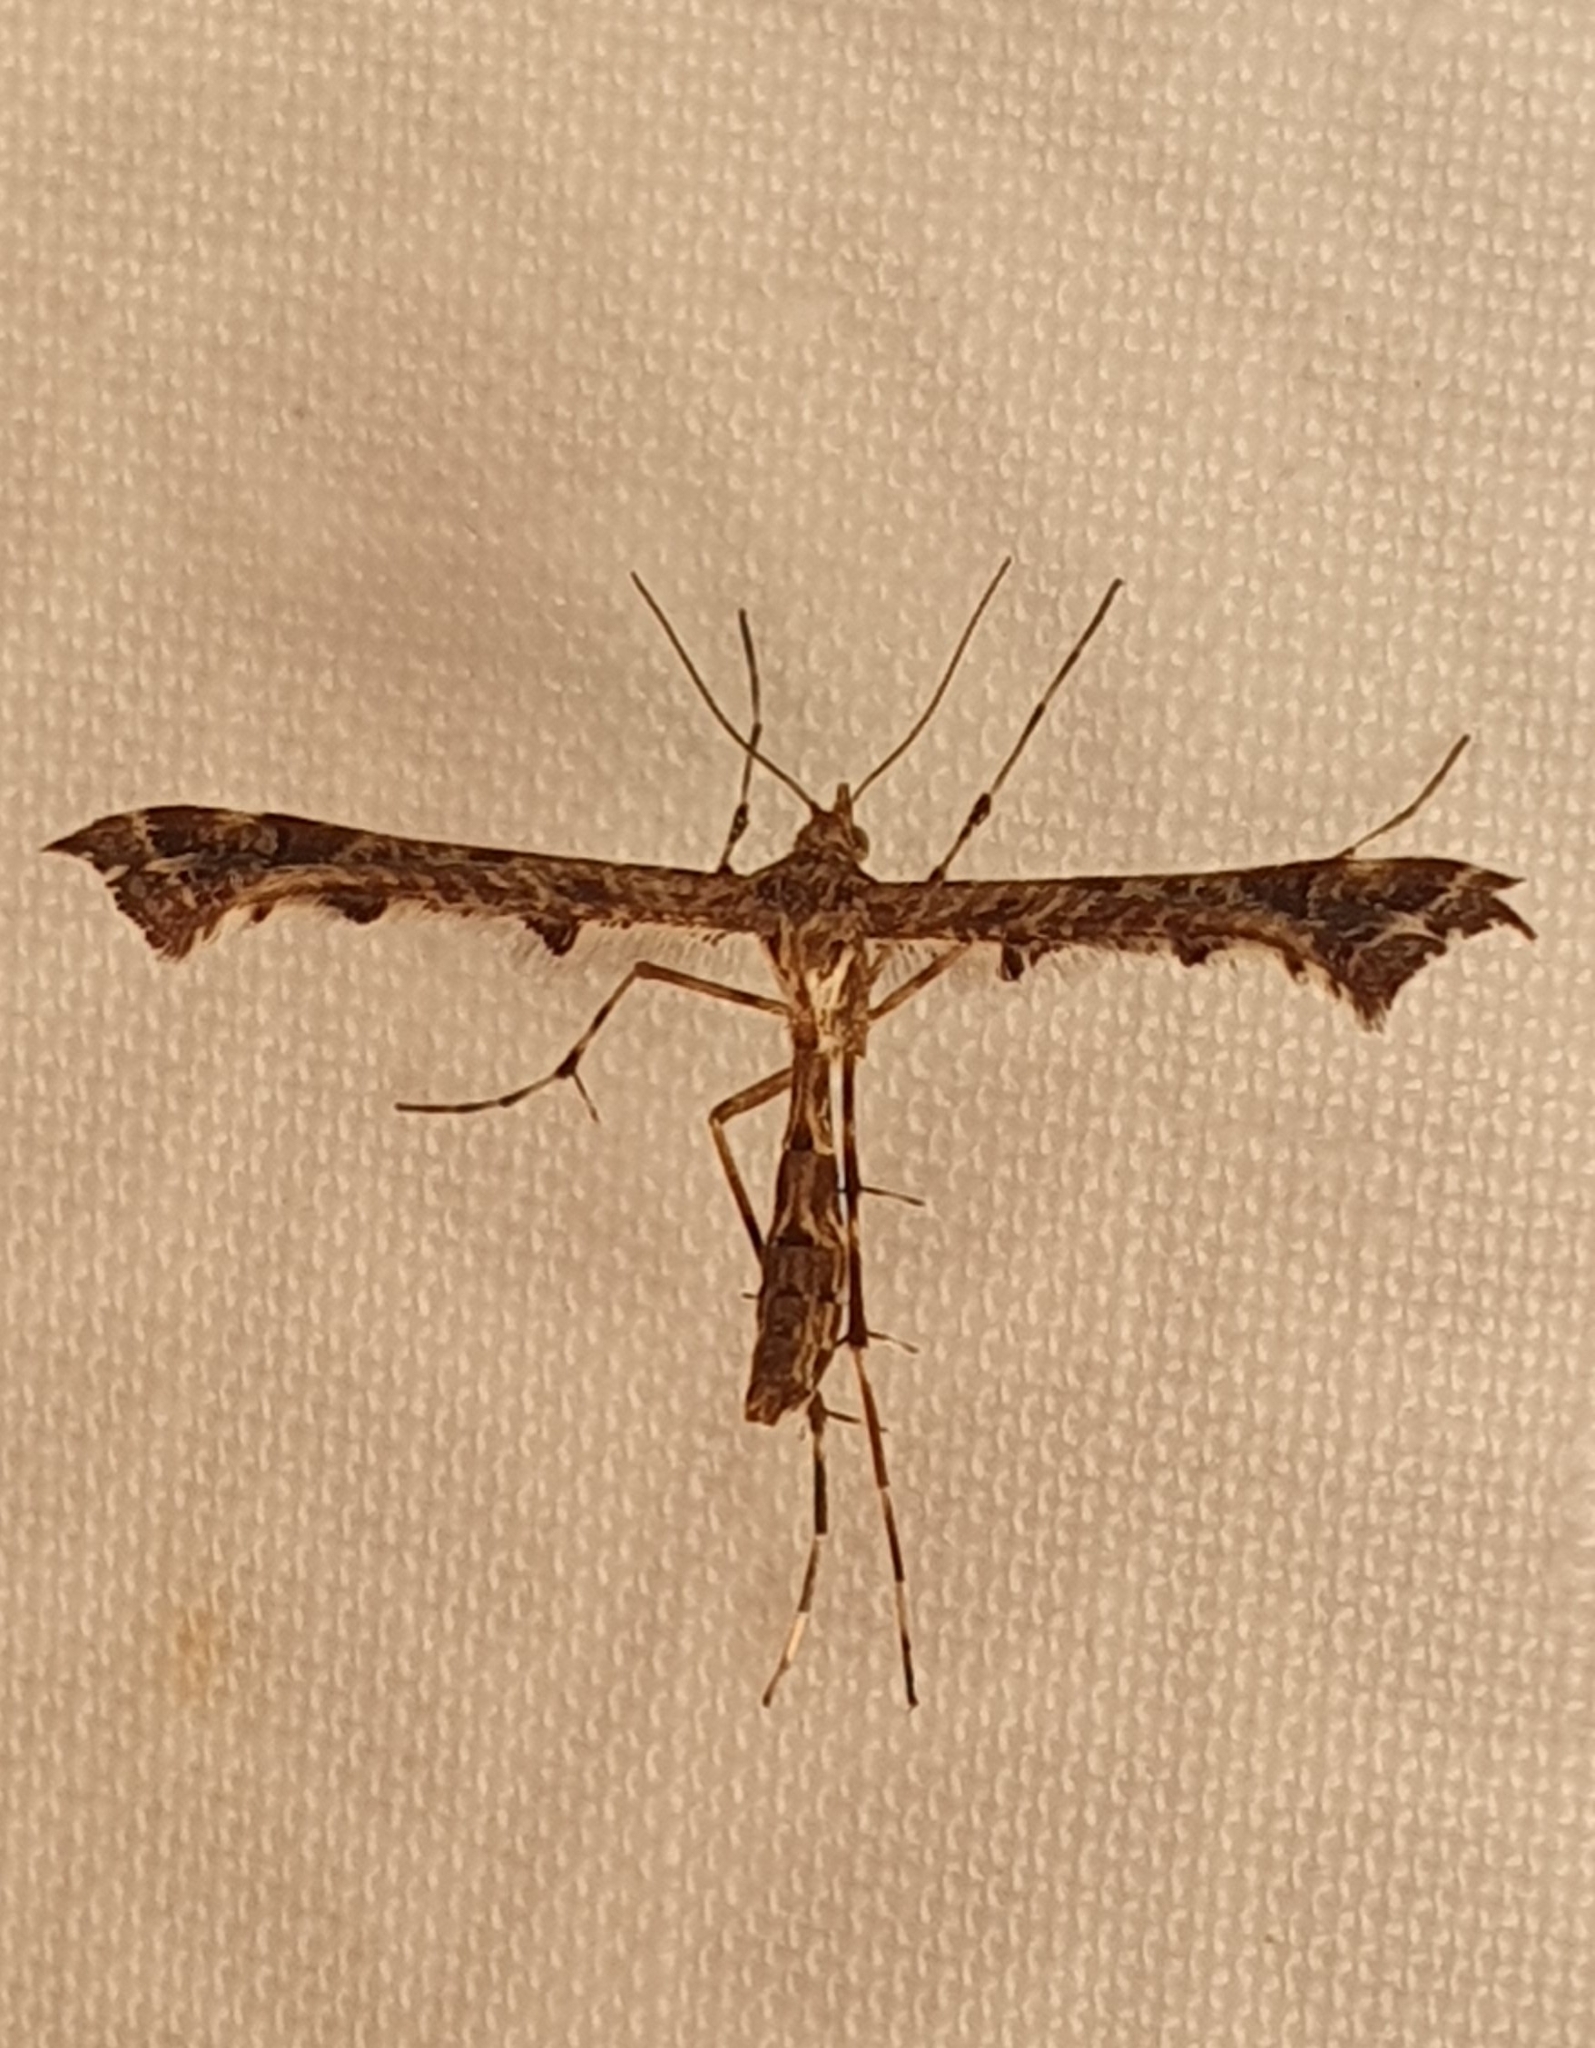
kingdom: Animalia
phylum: Arthropoda
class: Insecta
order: Lepidoptera
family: Pterophoridae
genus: Amblyptilia
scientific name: Amblyptilia acanthadactyla
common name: Beautiful plume
